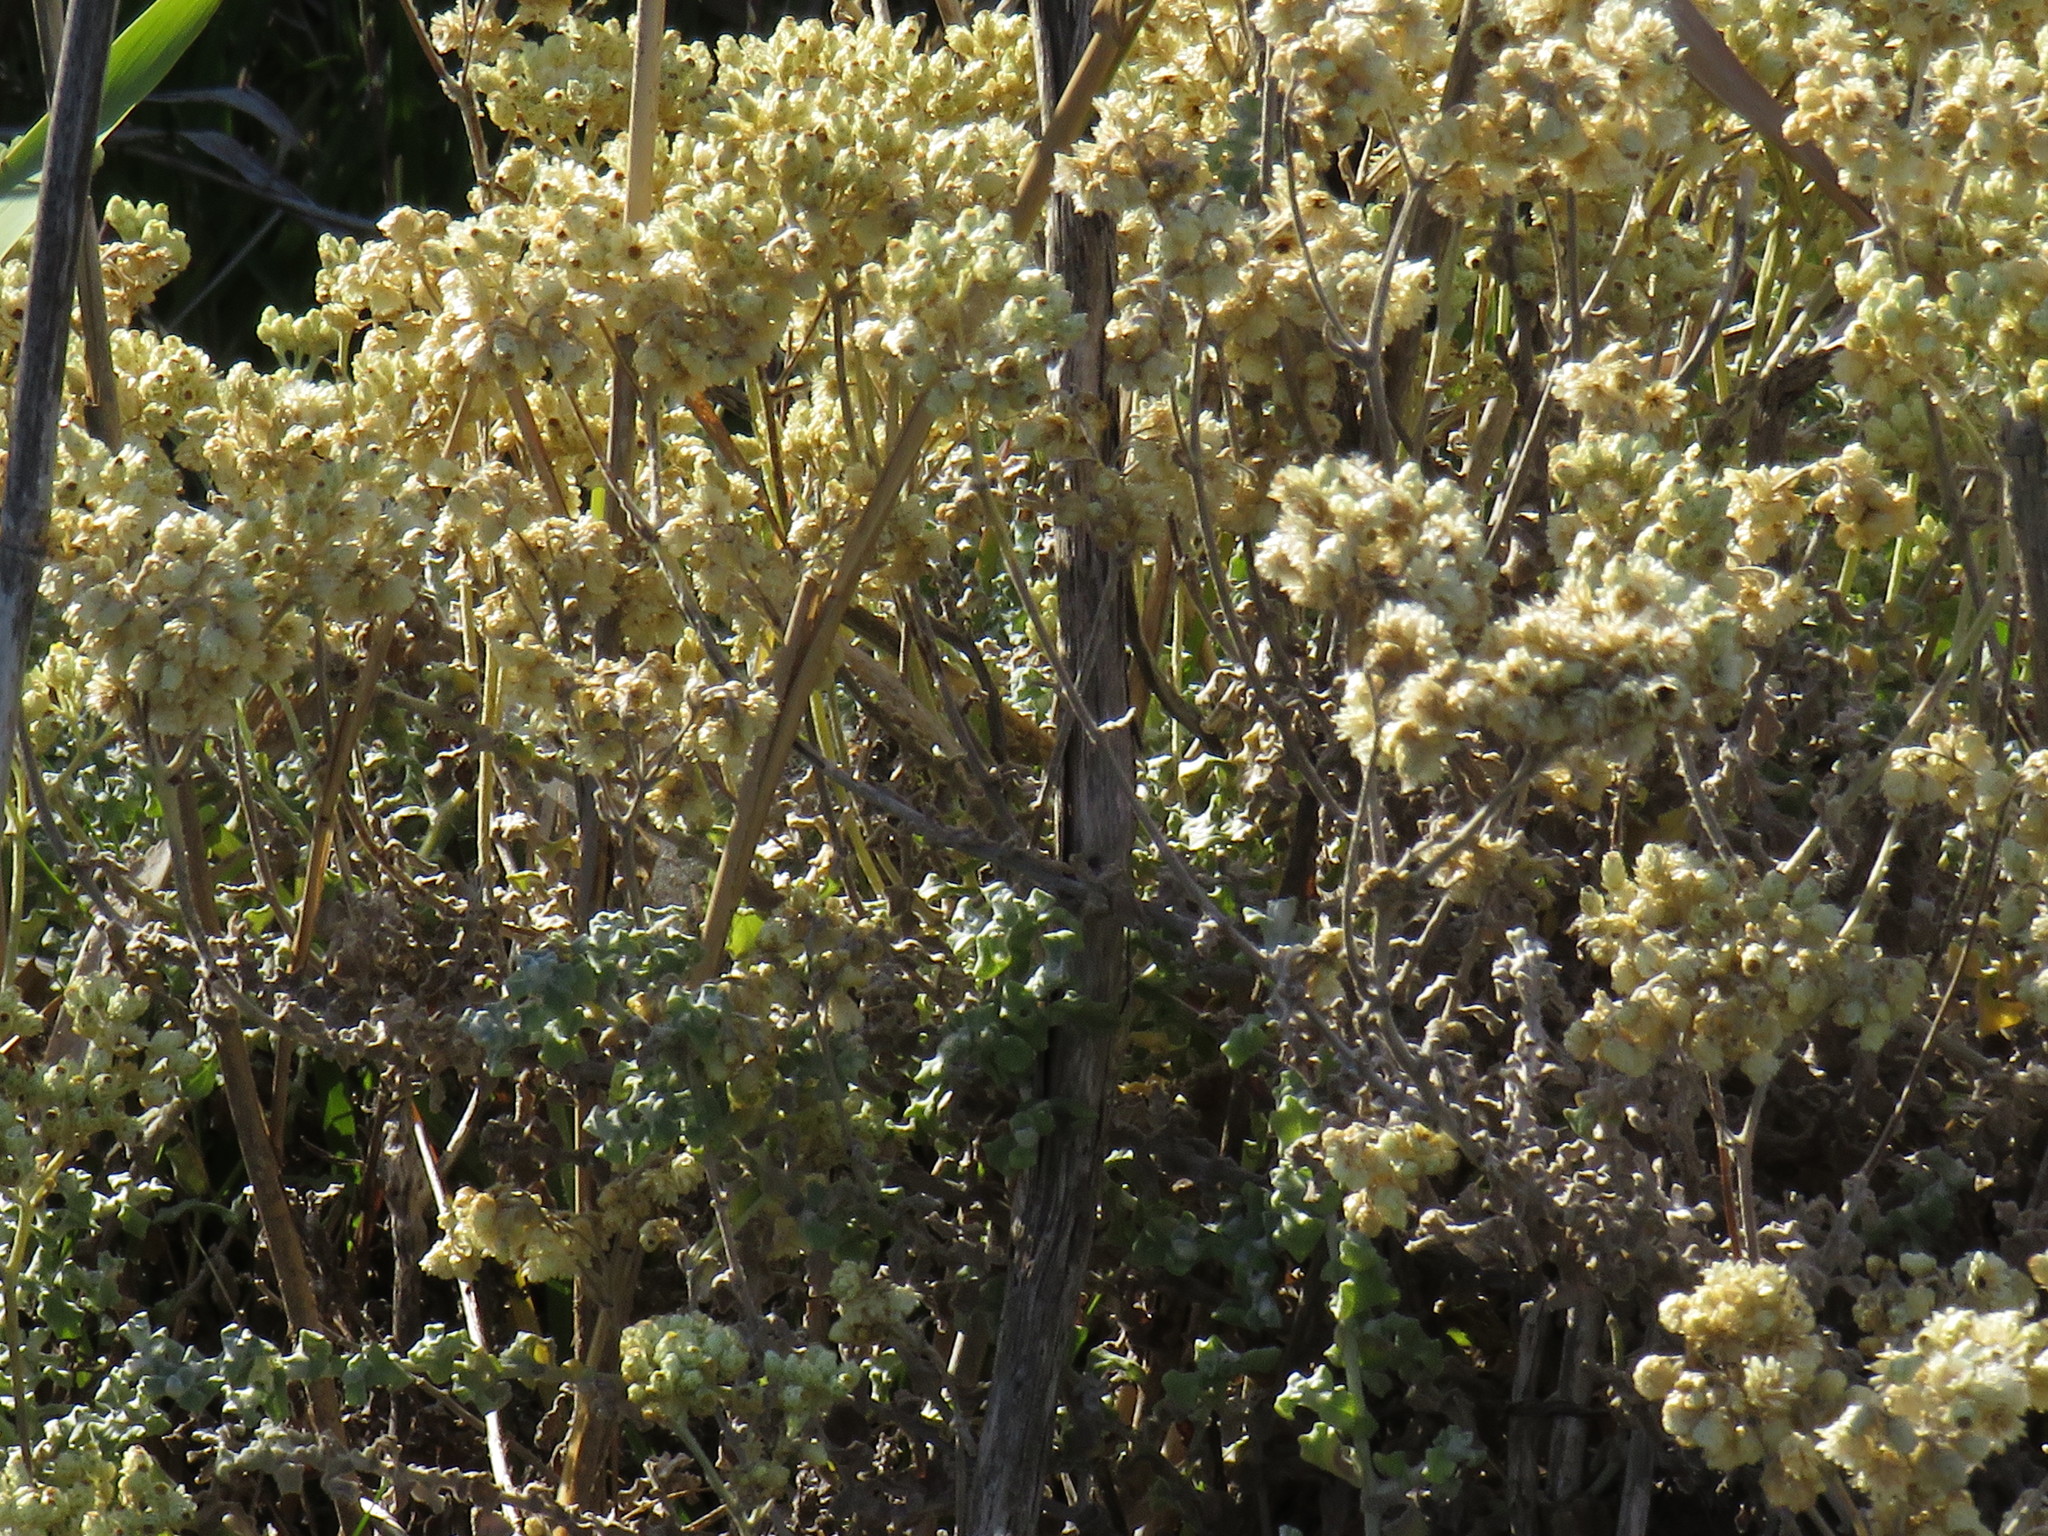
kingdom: Plantae
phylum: Tracheophyta
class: Magnoliopsida
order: Asterales
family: Asteraceae
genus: Helichrysum
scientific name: Helichrysum patulum
